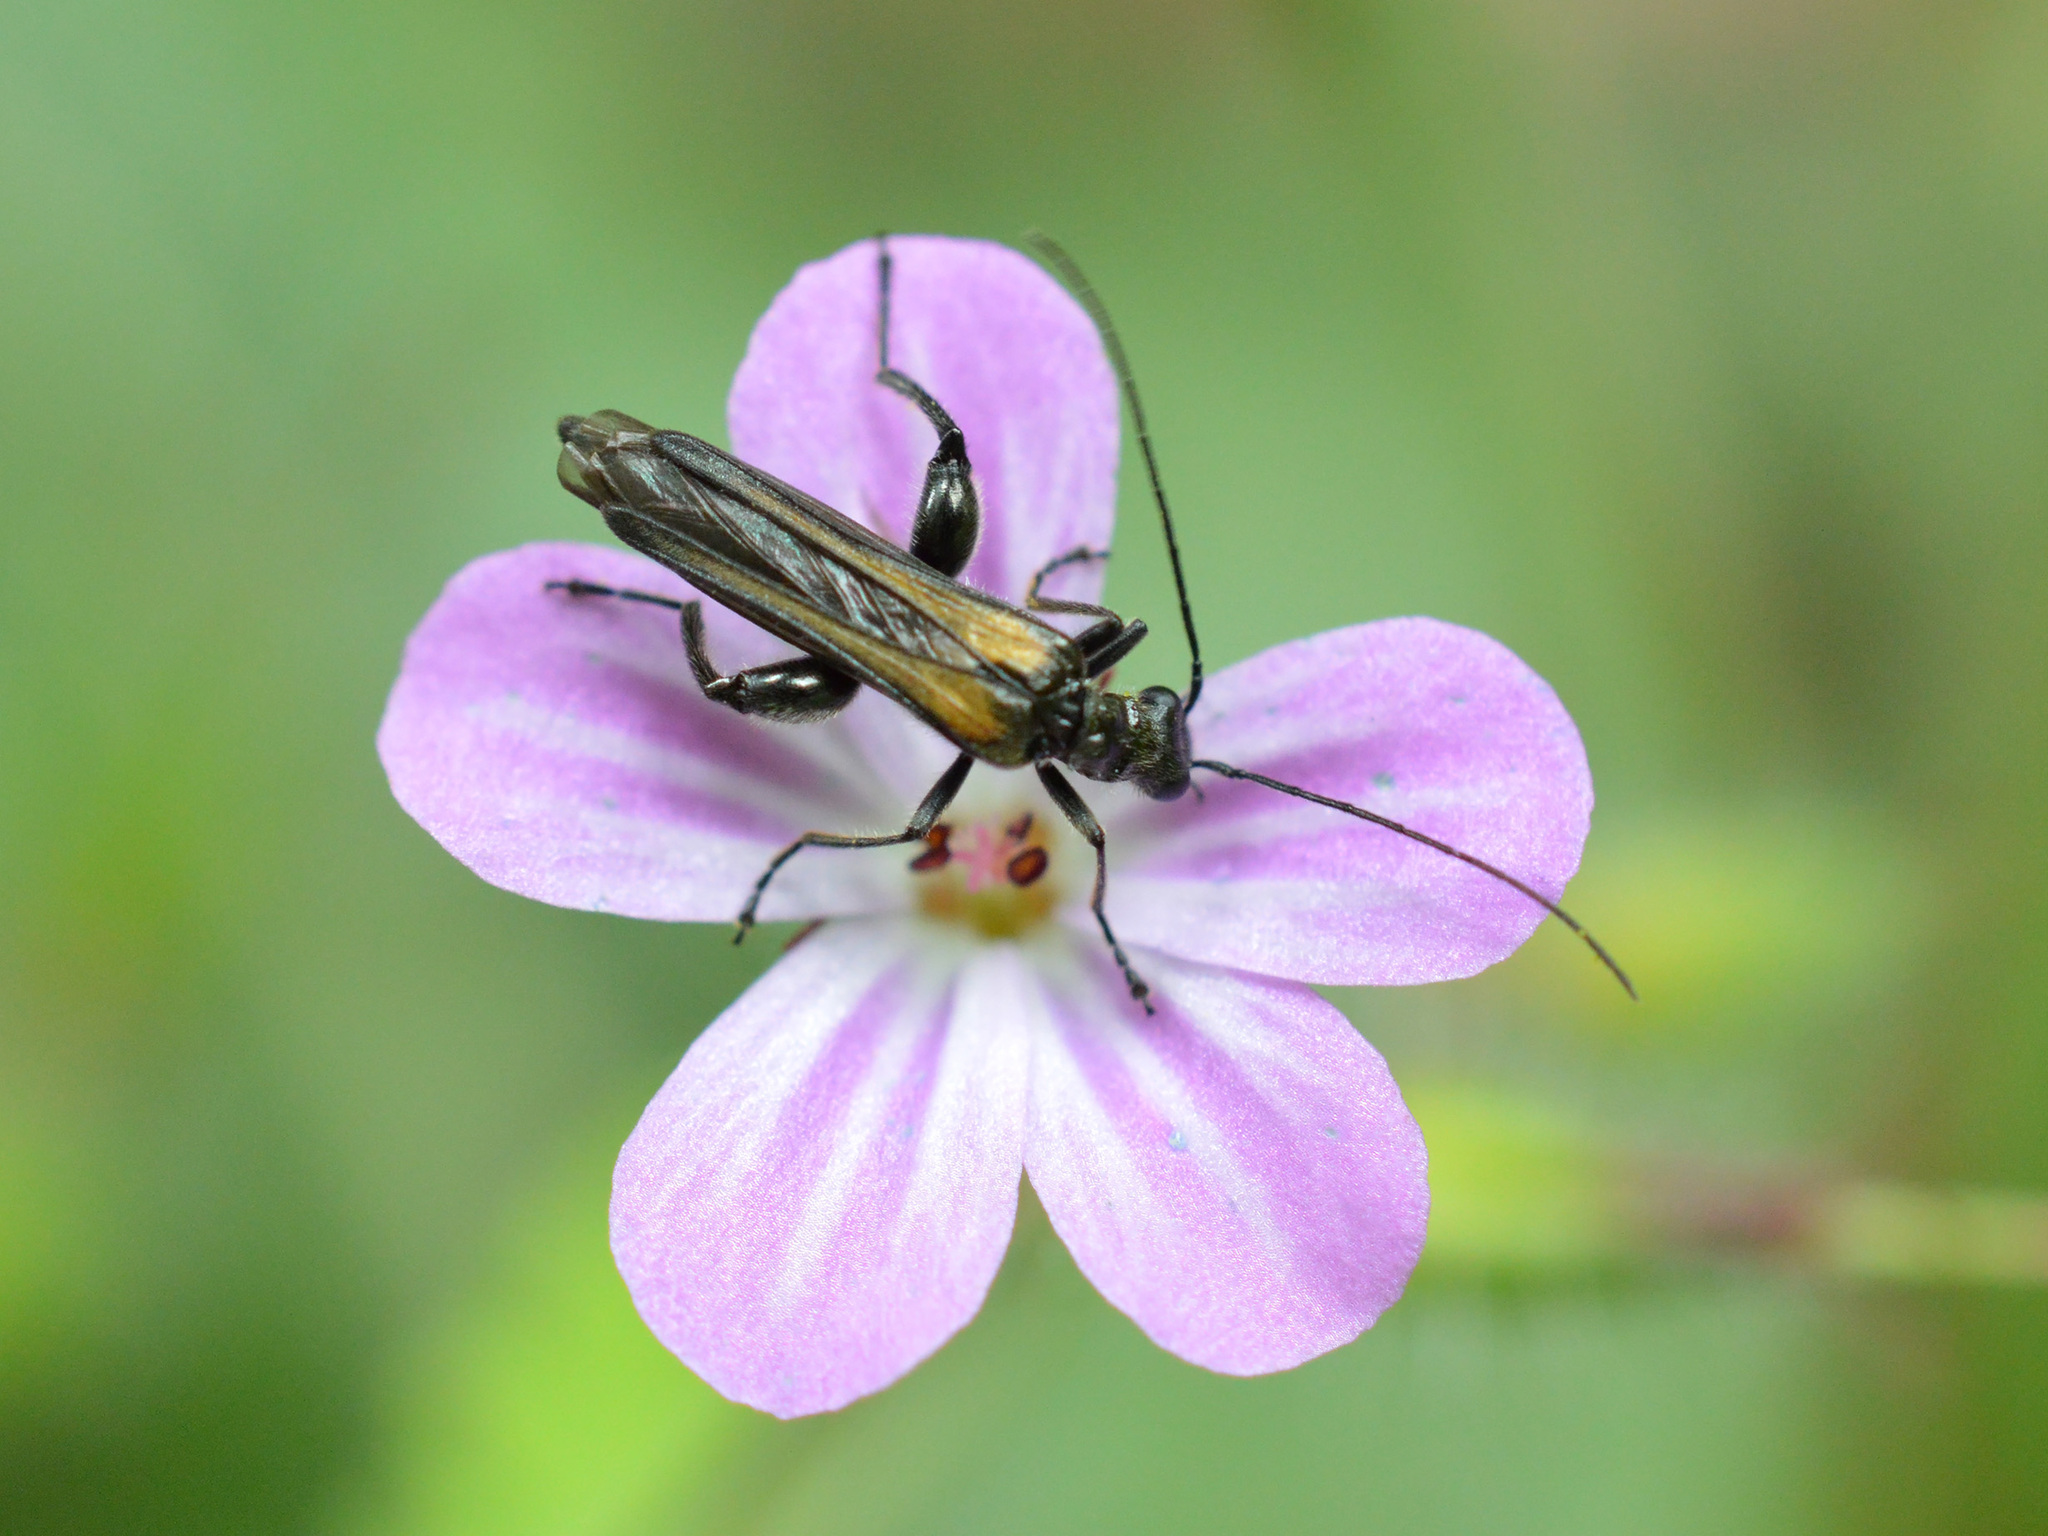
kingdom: Animalia
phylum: Arthropoda
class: Insecta
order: Coleoptera
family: Oedemeridae
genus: Oedemera
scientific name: Oedemera pthysica
